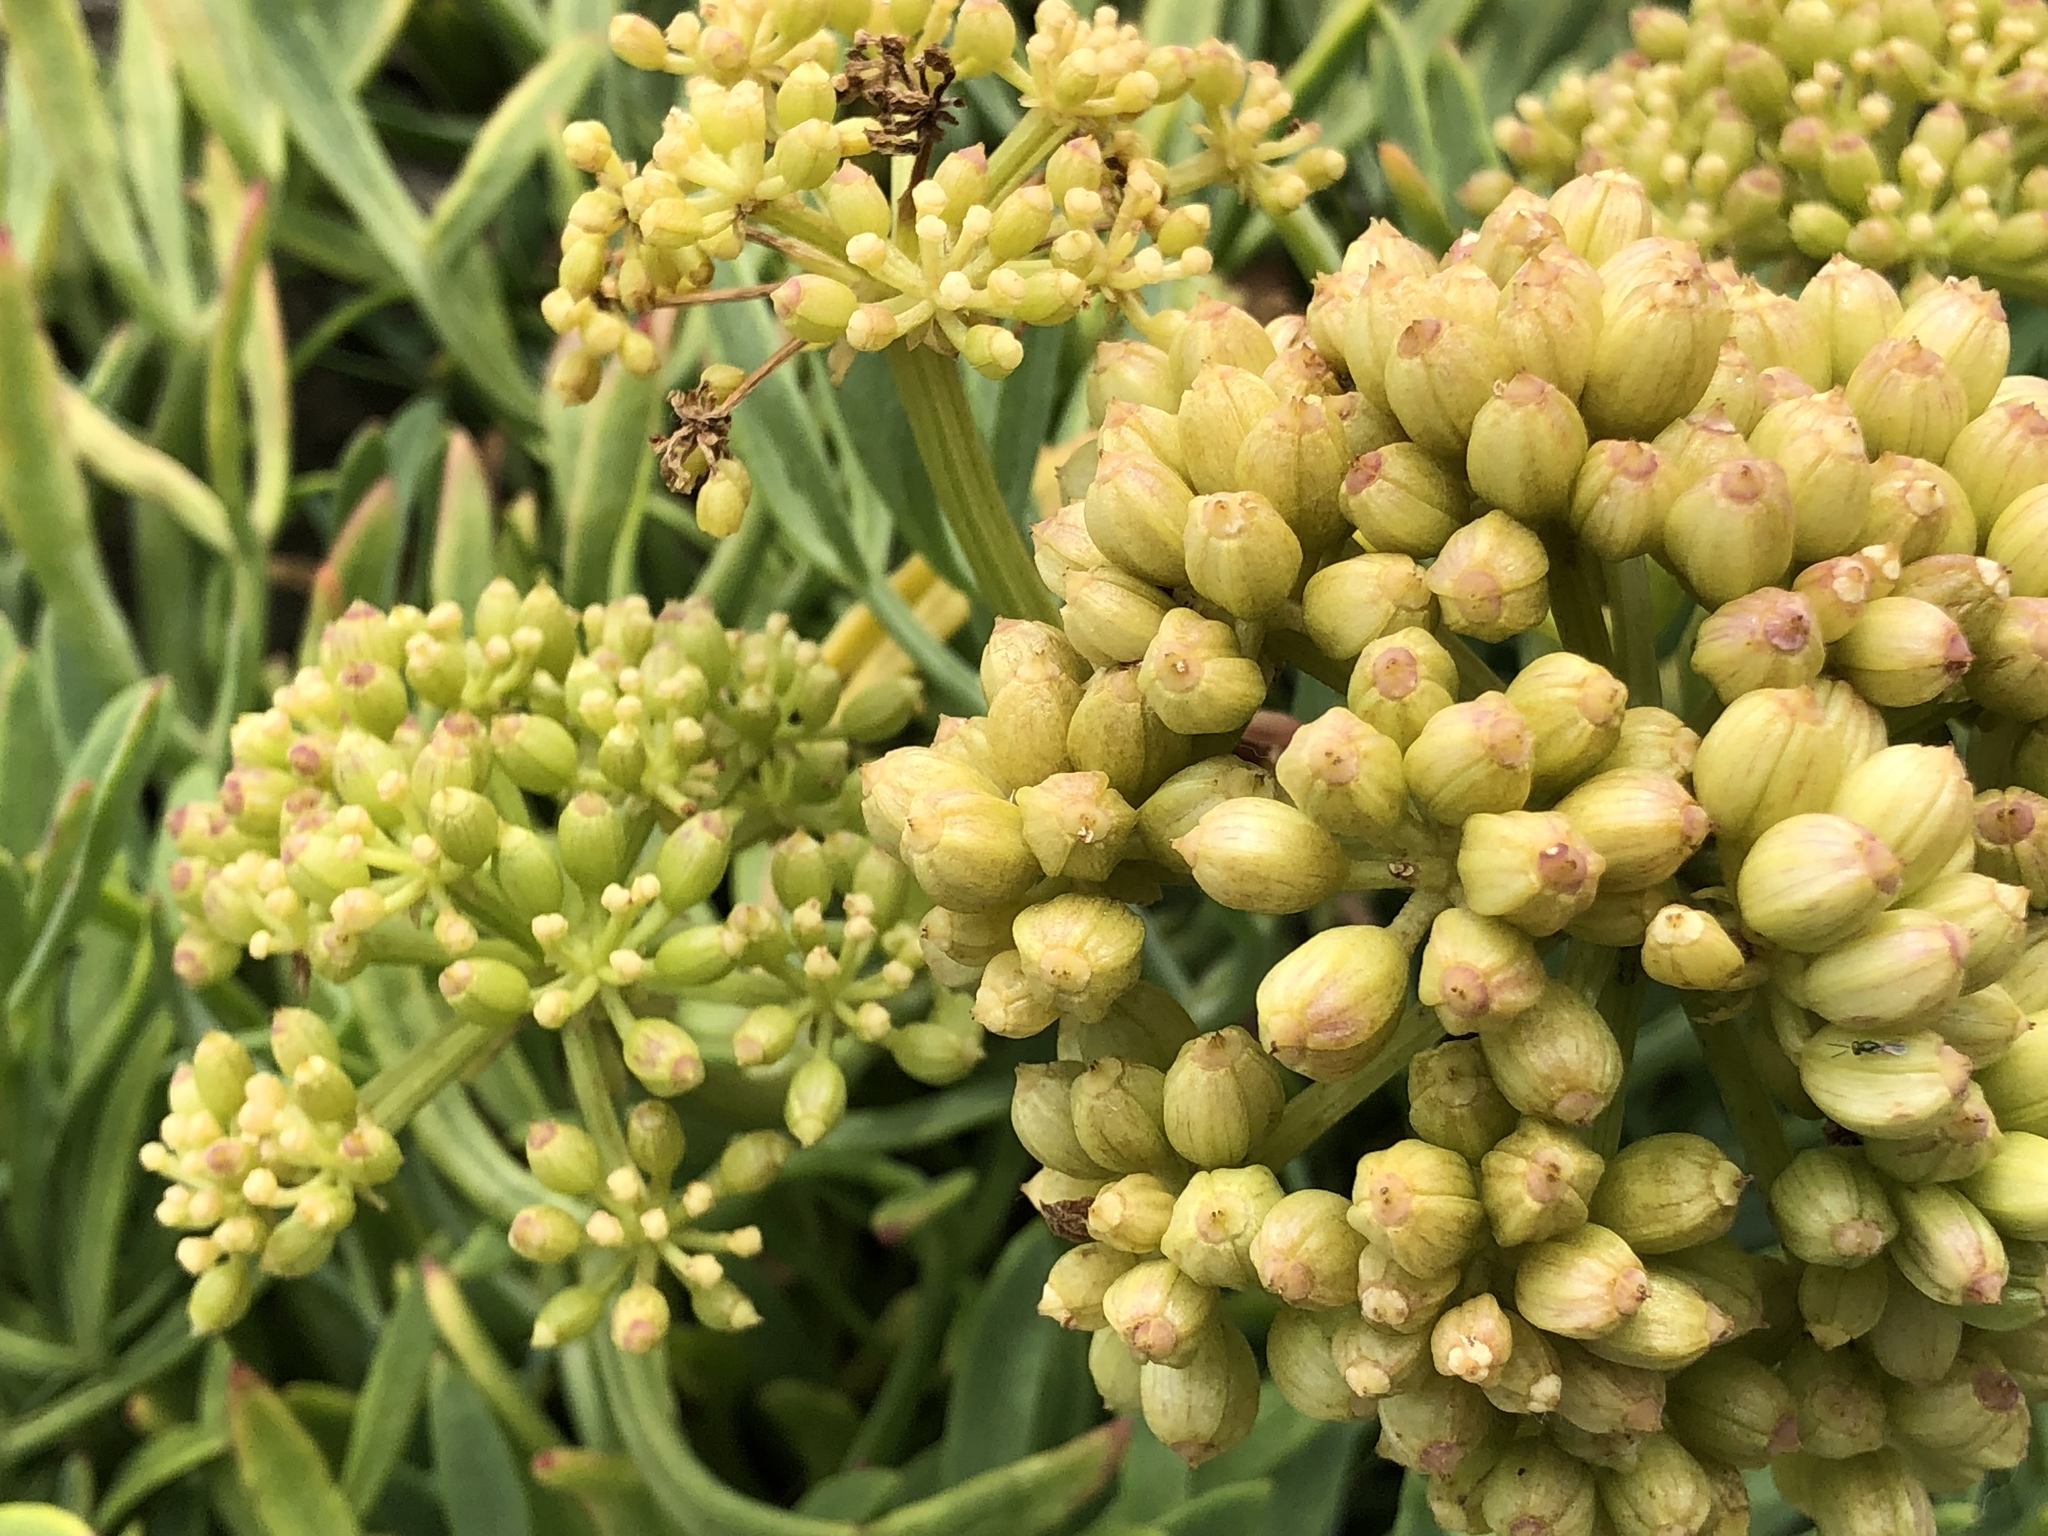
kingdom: Plantae
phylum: Tracheophyta
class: Magnoliopsida
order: Apiales
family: Apiaceae
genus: Crithmum
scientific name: Crithmum maritimum
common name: Rock samphire
